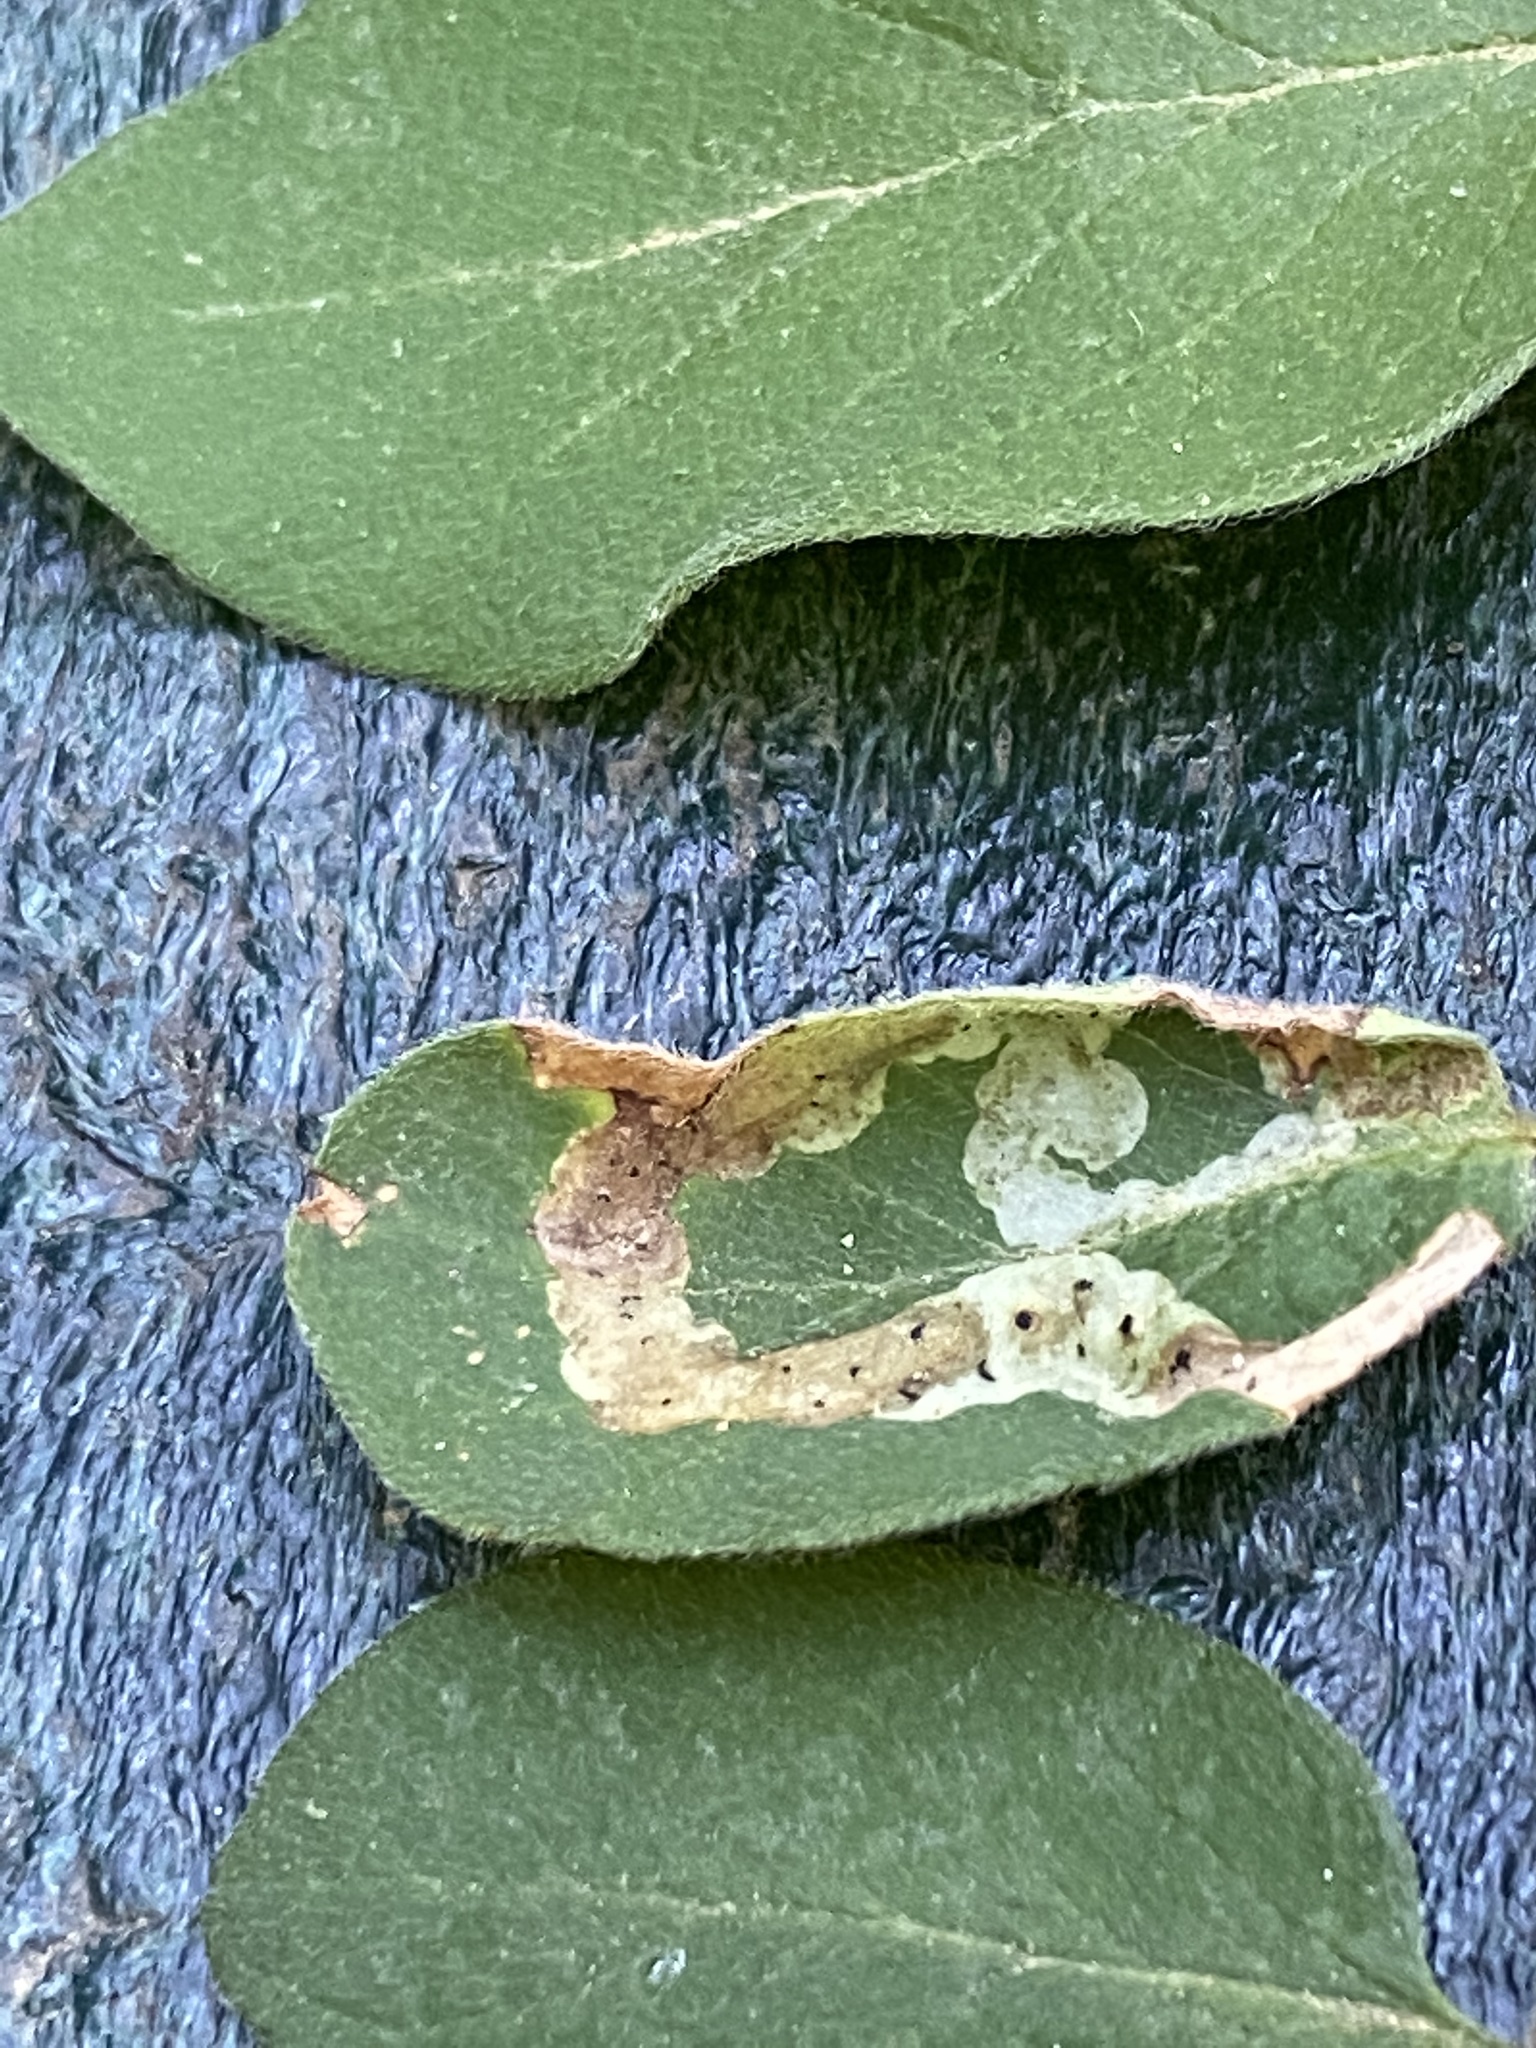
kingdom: Animalia
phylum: Arthropoda
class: Insecta
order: Diptera
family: Agromyzidae
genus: Aulagromyza
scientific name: Aulagromyza cornigera
